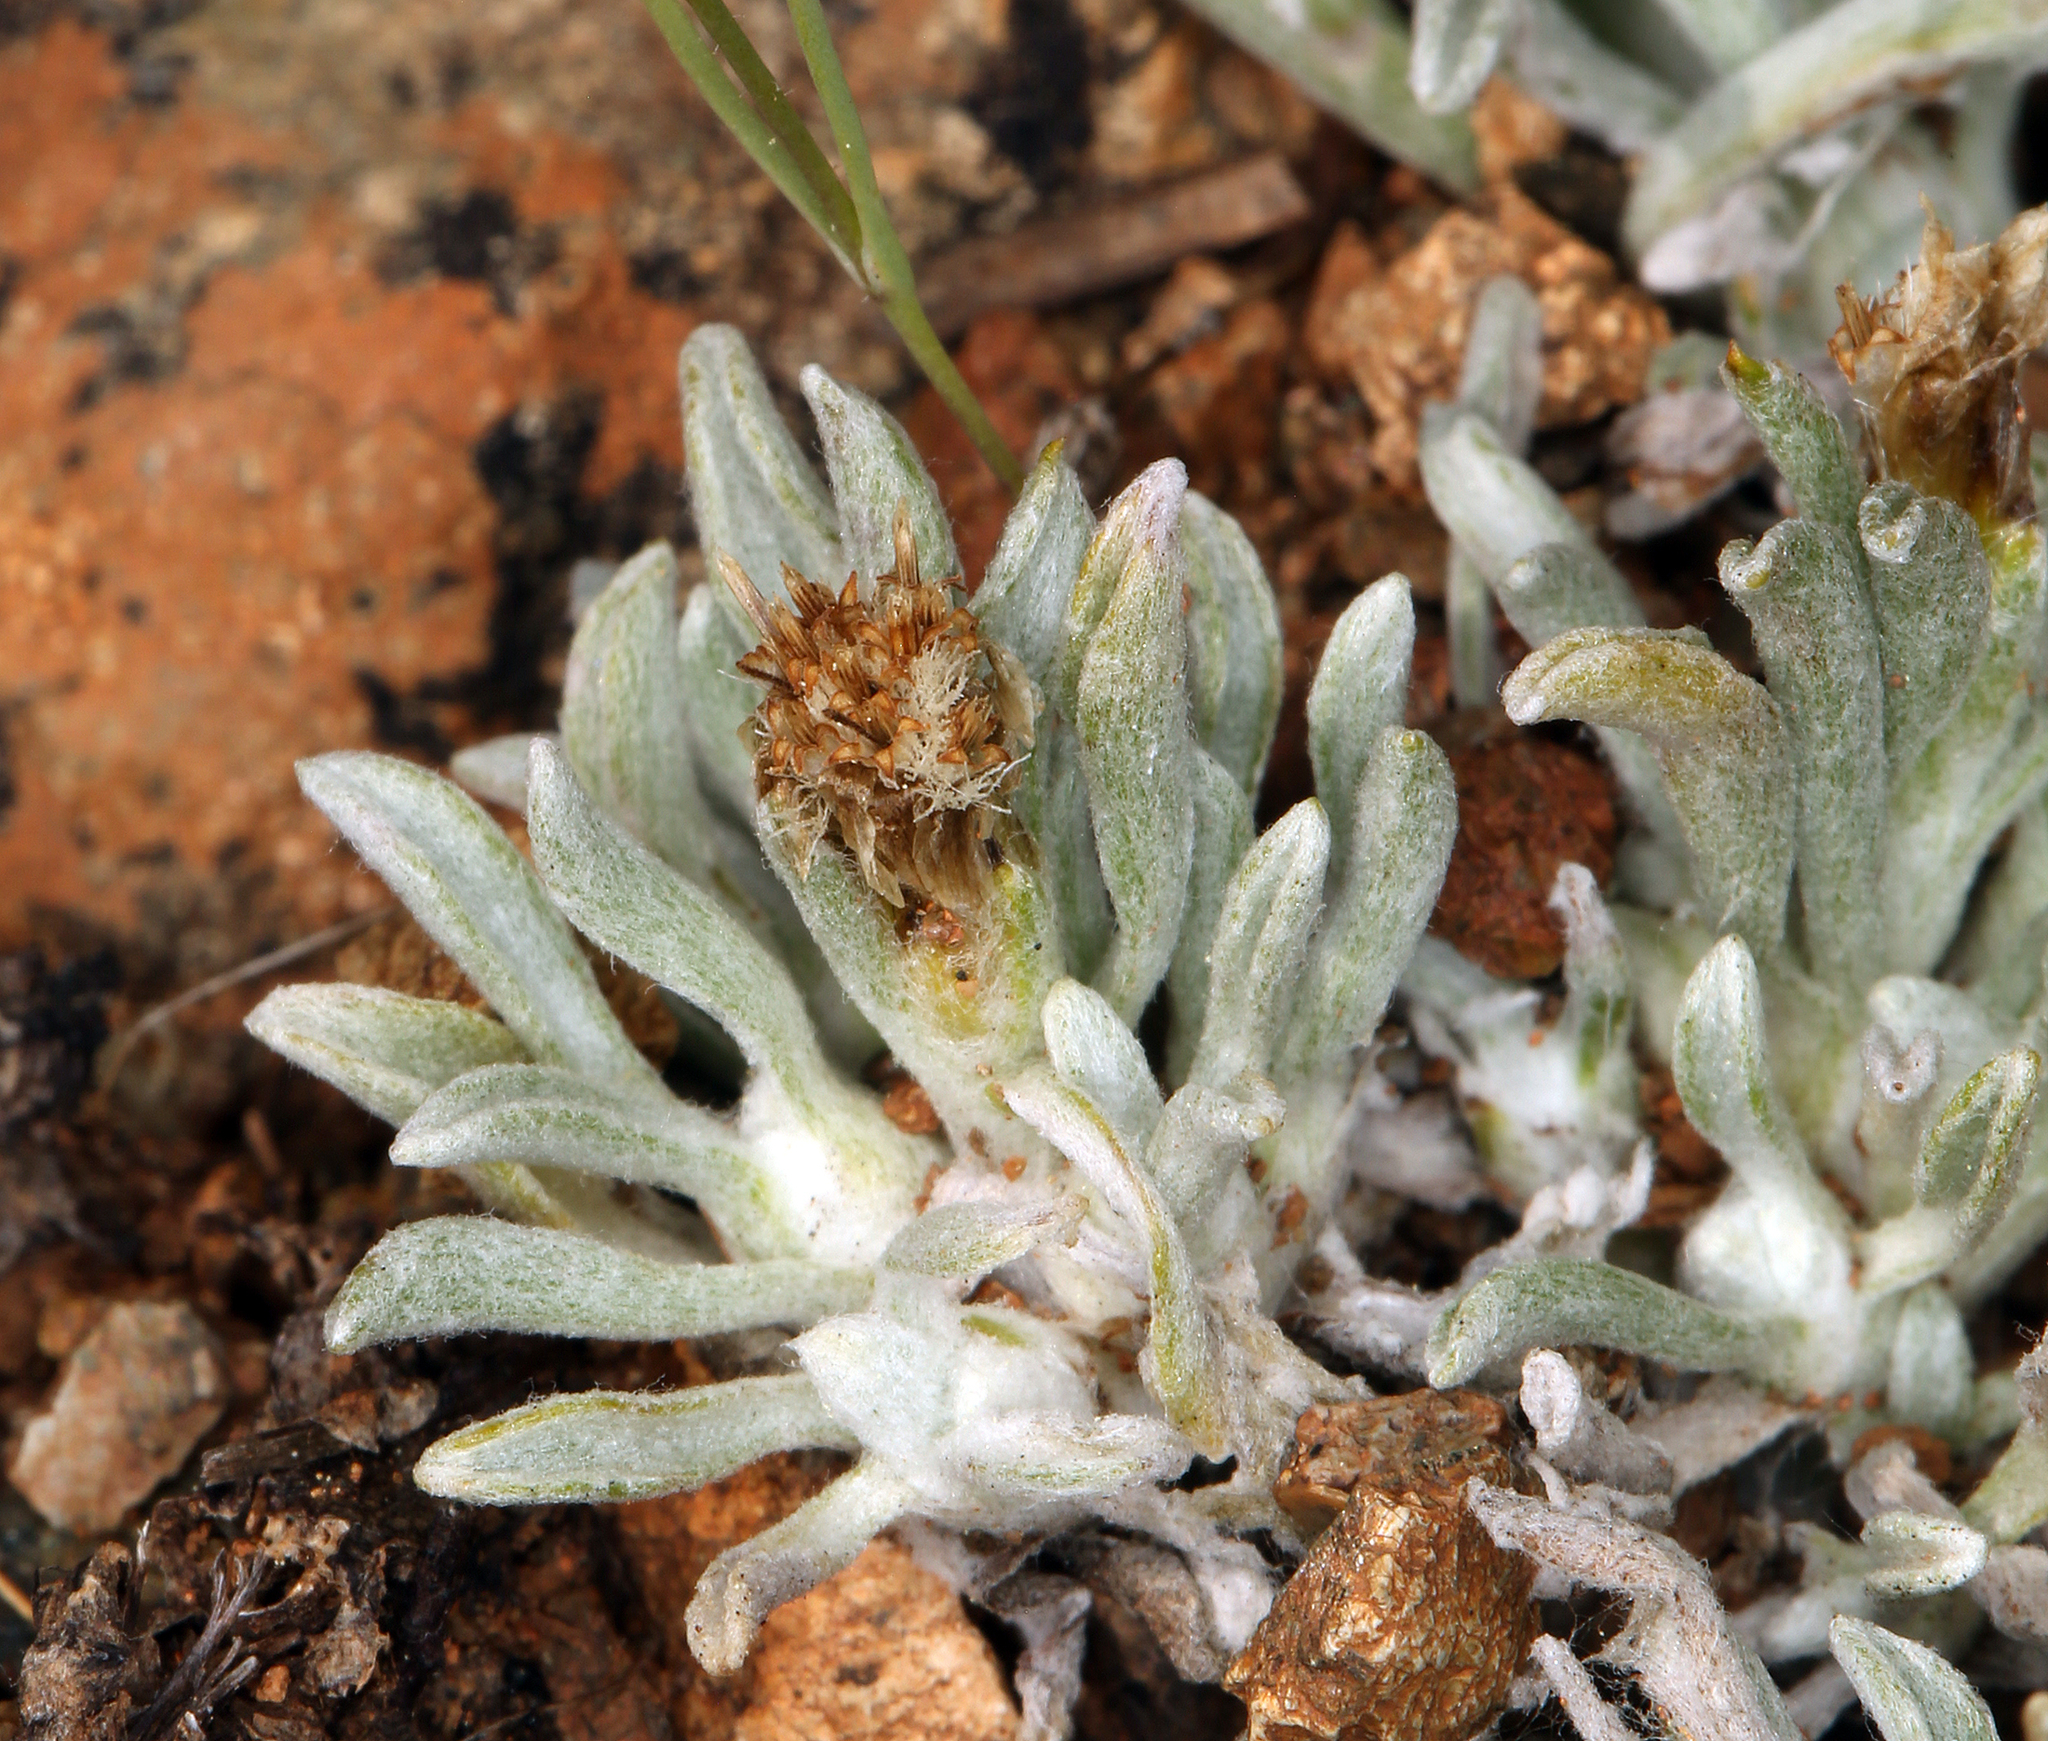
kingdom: Plantae
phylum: Tracheophyta
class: Magnoliopsida
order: Asterales
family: Asteraceae
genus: Antennaria
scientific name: Antennaria dimorpha
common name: Cushion pussytoes
